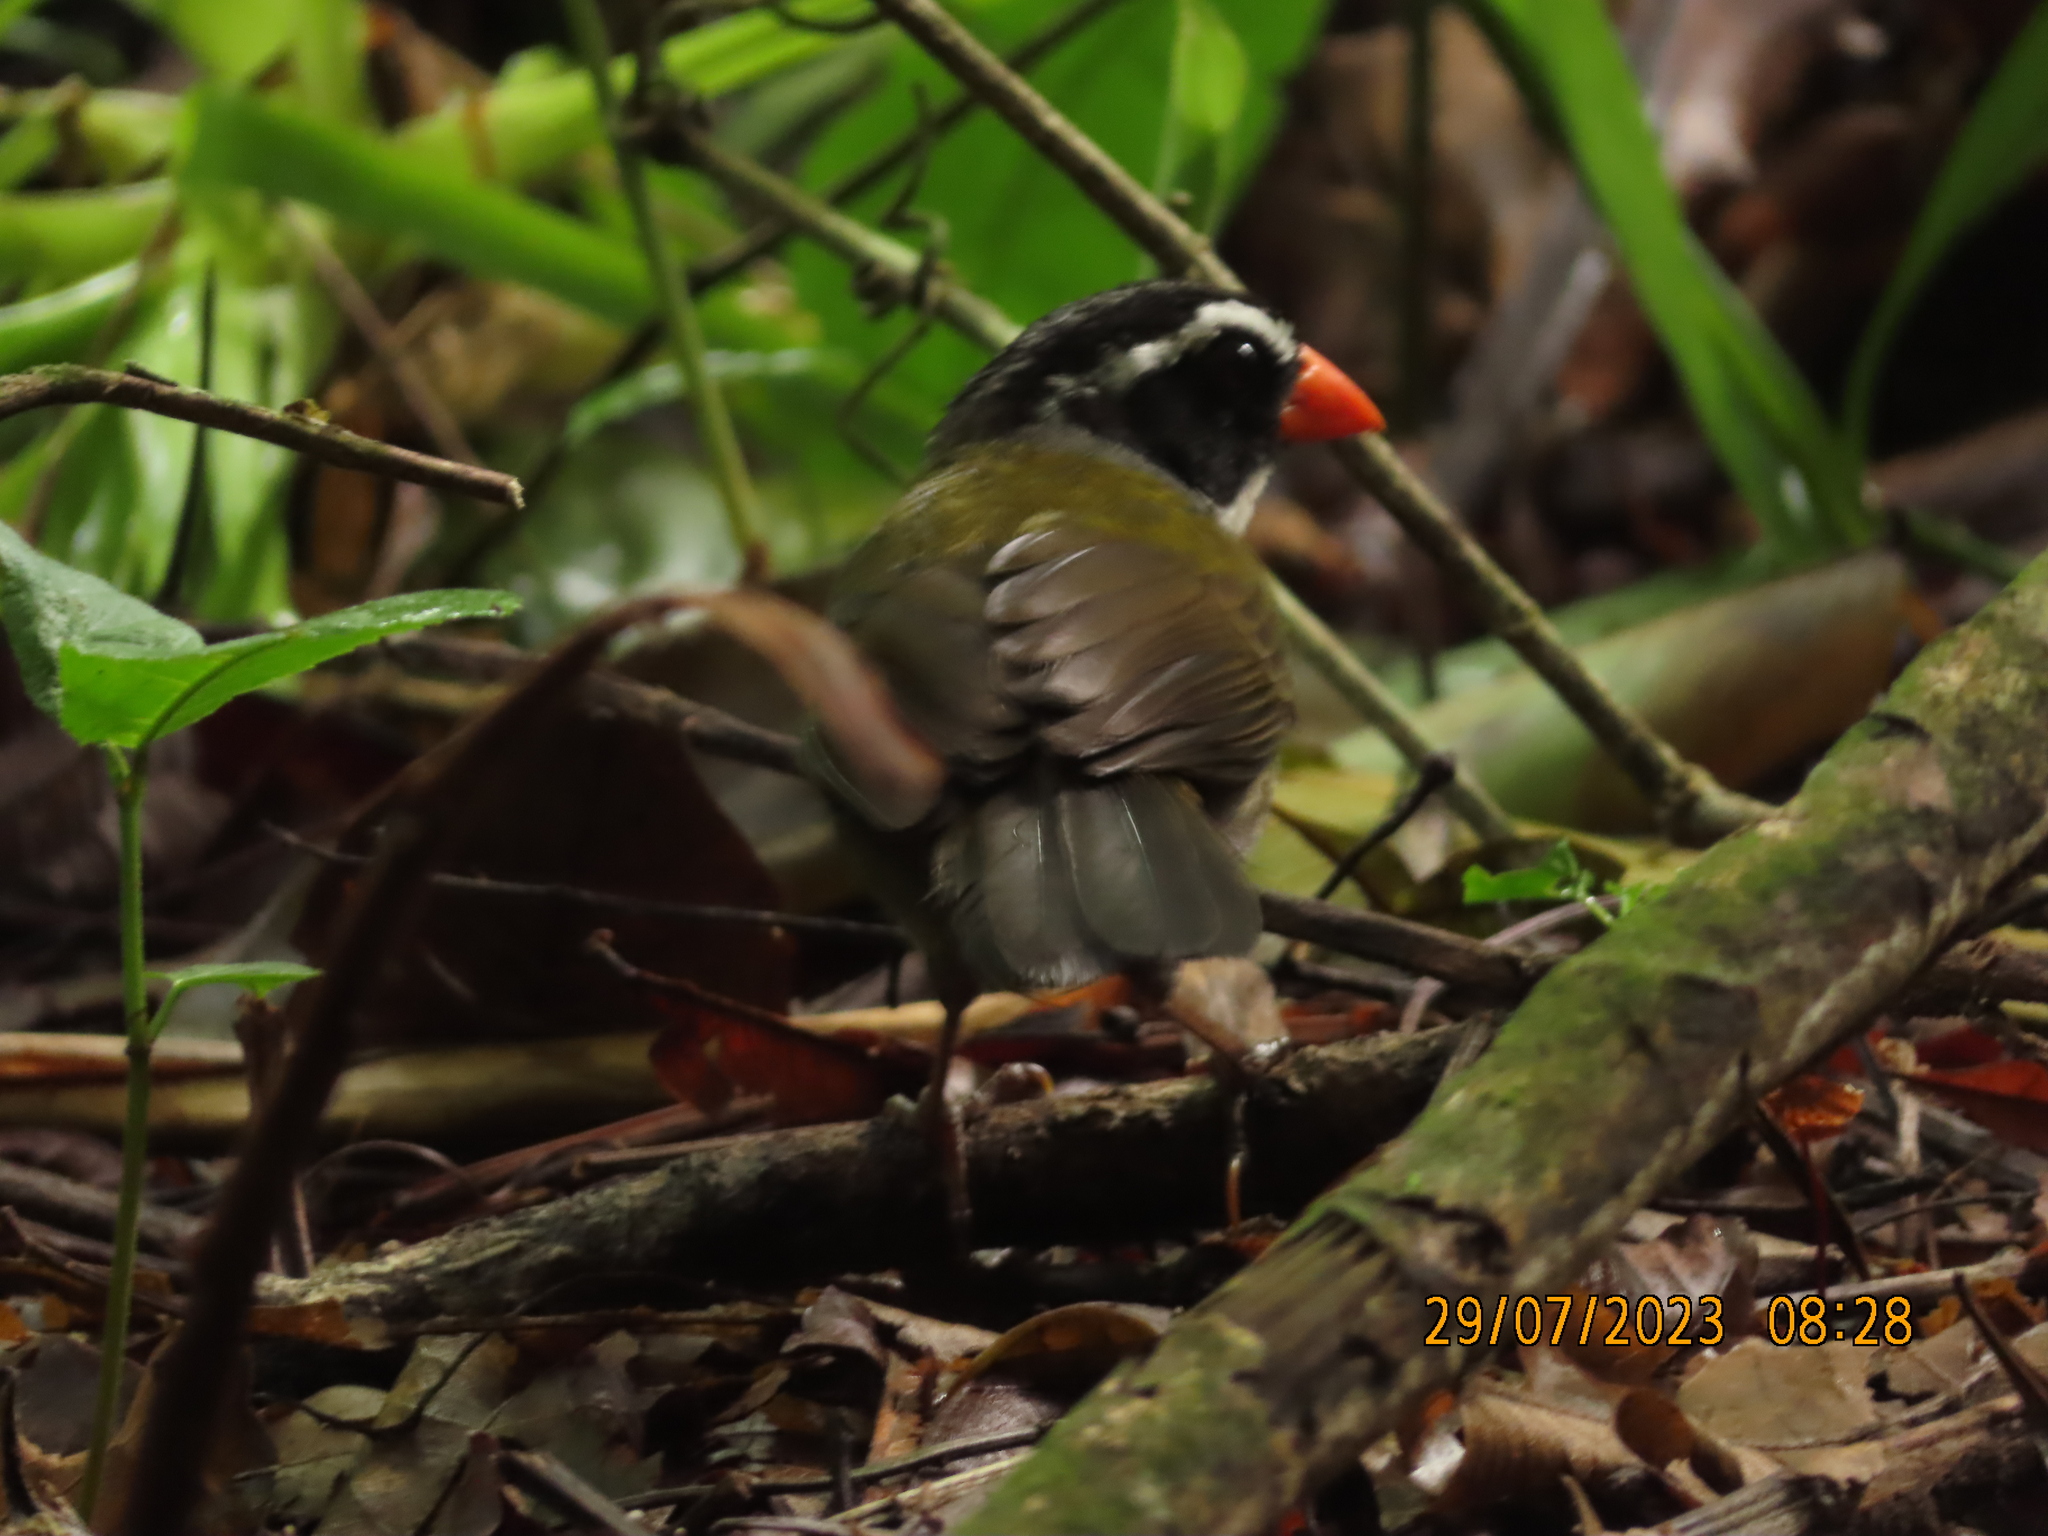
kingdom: Animalia
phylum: Chordata
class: Aves
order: Passeriformes
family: Passerellidae
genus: Arremon
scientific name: Arremon aurantiirostris
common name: Orange-billed sparrow
